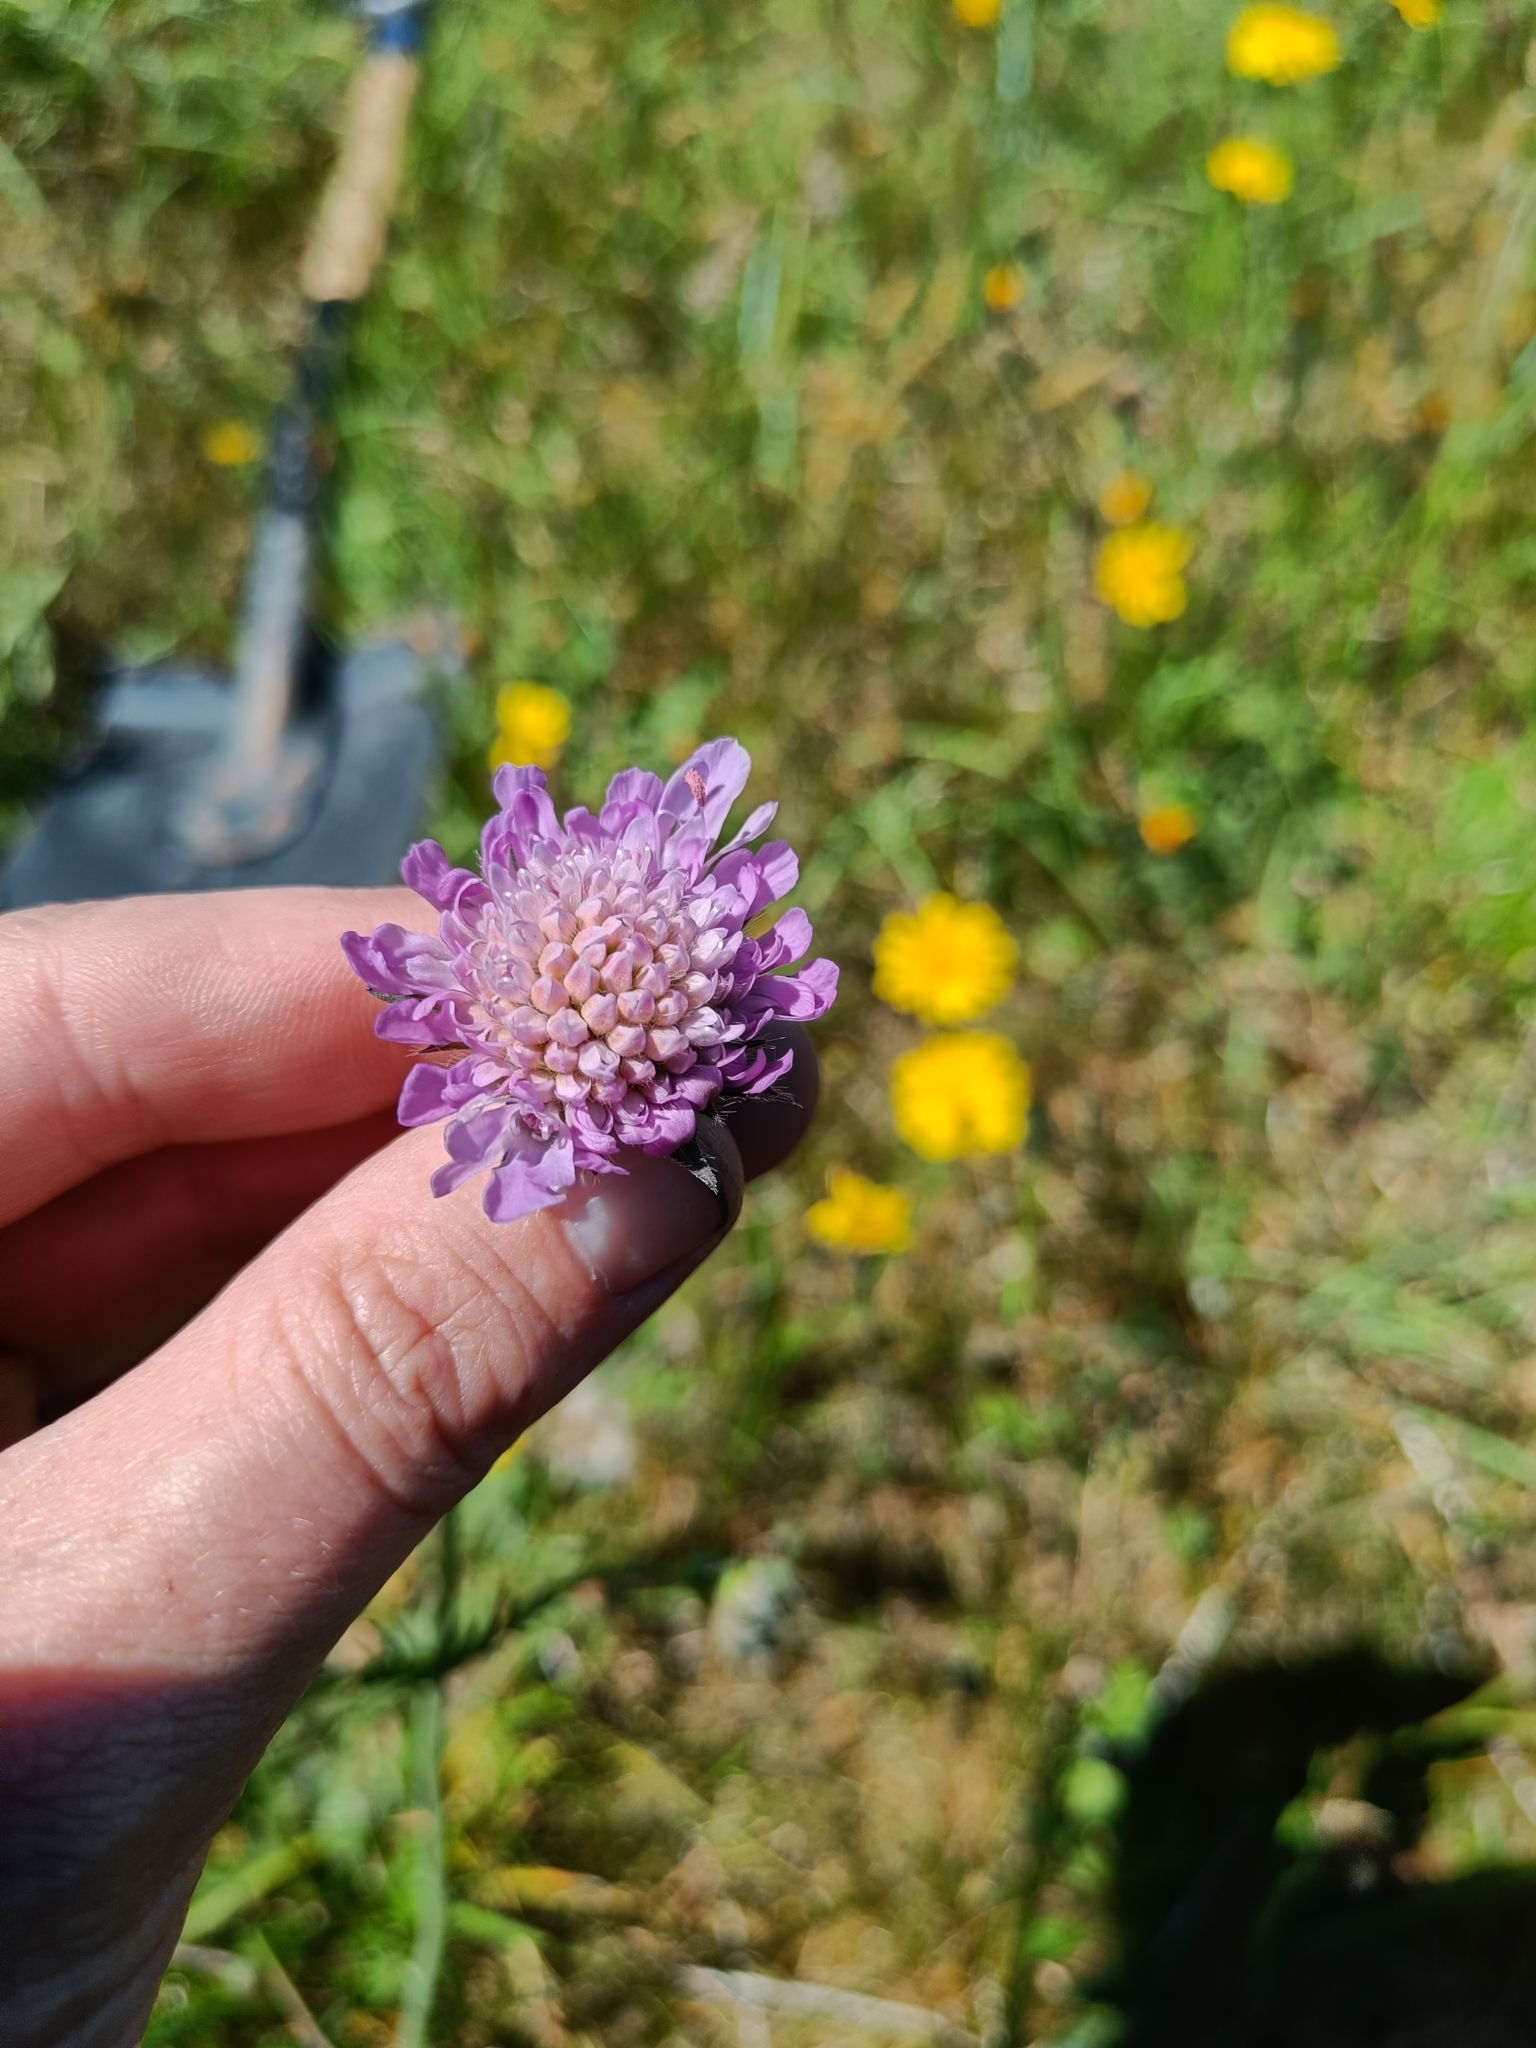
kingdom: Plantae
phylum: Tracheophyta
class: Magnoliopsida
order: Dipsacales
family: Caprifoliaceae
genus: Knautia
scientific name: Knautia arvensis
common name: Field scabiosa
